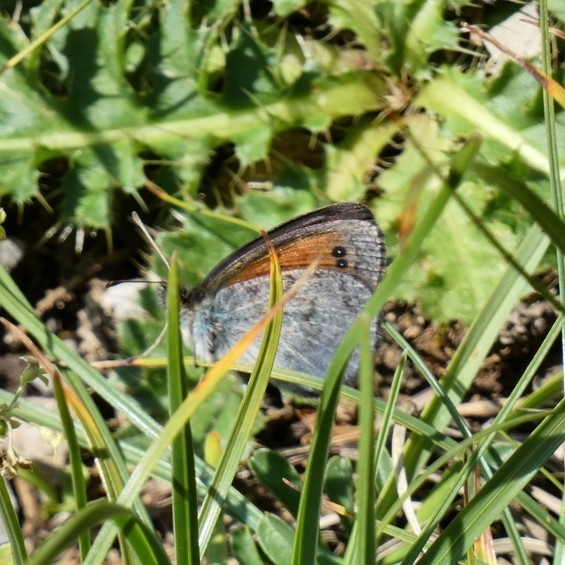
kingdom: Animalia
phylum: Arthropoda
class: Insecta
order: Lepidoptera
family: Nymphalidae
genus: Erebia
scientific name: Erebia tyndarus
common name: Swiss brassy ringlet
